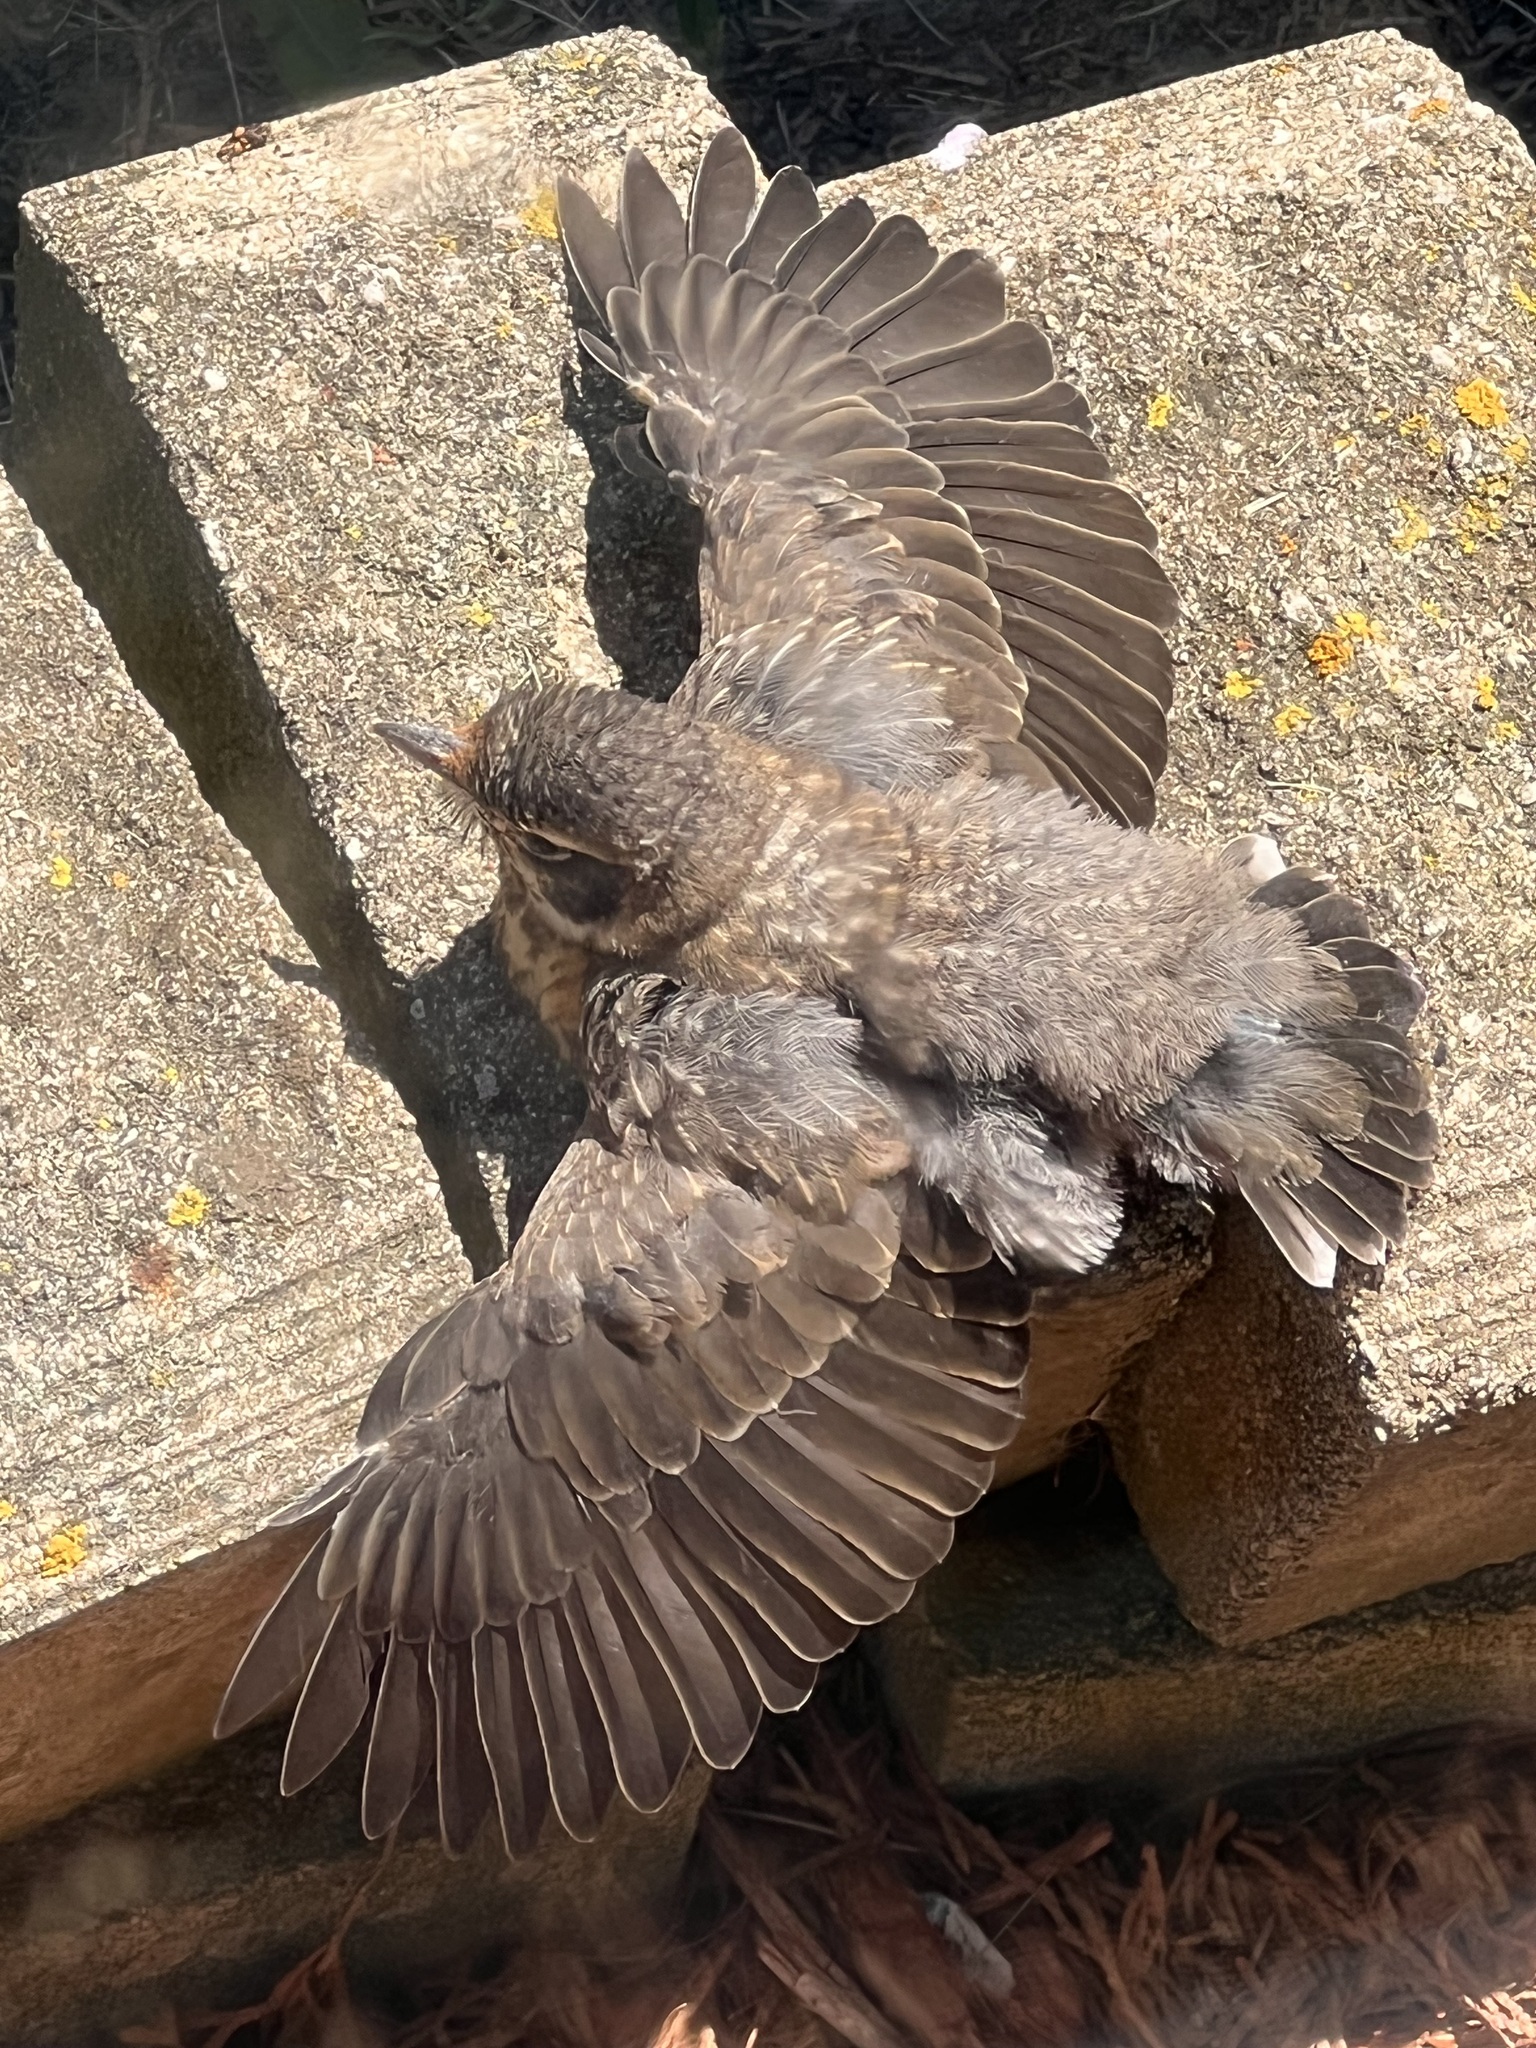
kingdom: Animalia
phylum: Chordata
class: Aves
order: Passeriformes
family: Turdidae
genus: Turdus
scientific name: Turdus migratorius
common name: American robin
